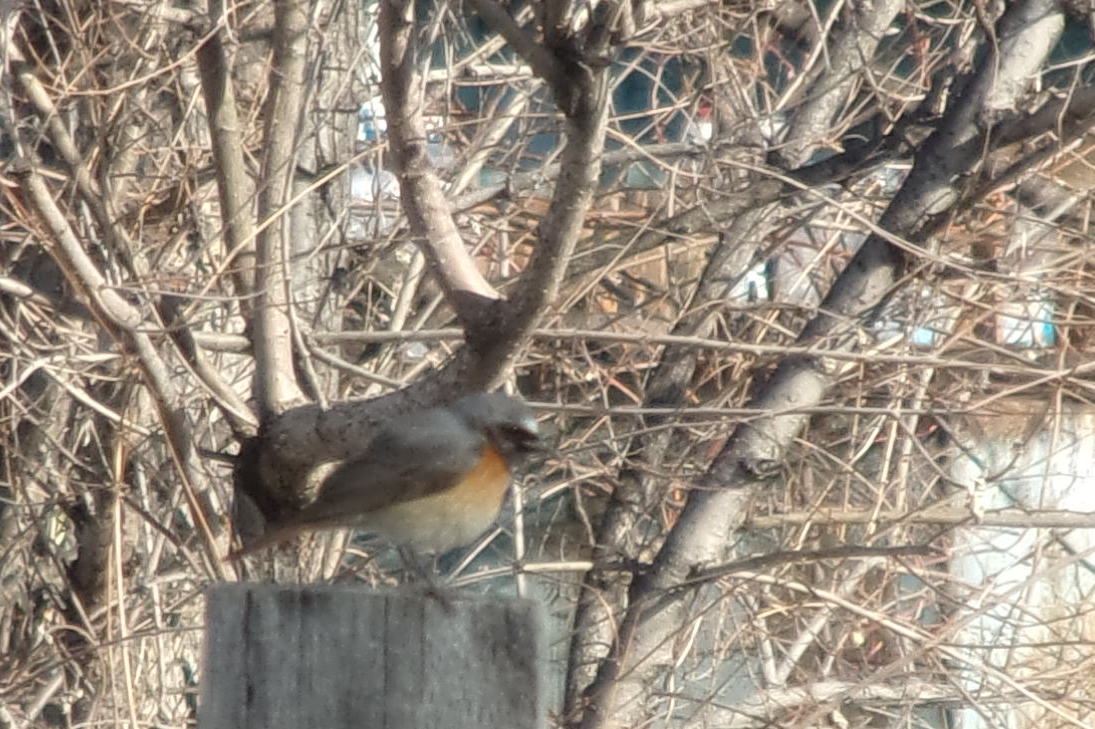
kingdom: Animalia
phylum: Chordata
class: Aves
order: Passeriformes
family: Muscicapidae
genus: Phoenicurus
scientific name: Phoenicurus phoenicurus
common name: Common redstart
